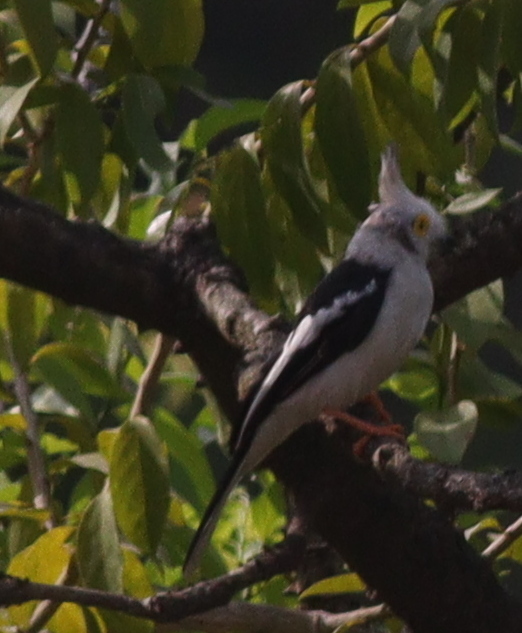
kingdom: Animalia
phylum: Chordata
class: Aves
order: Passeriformes
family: Prionopidae
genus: Prionops
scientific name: Prionops plumatus
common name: White-crested helmetshrike
